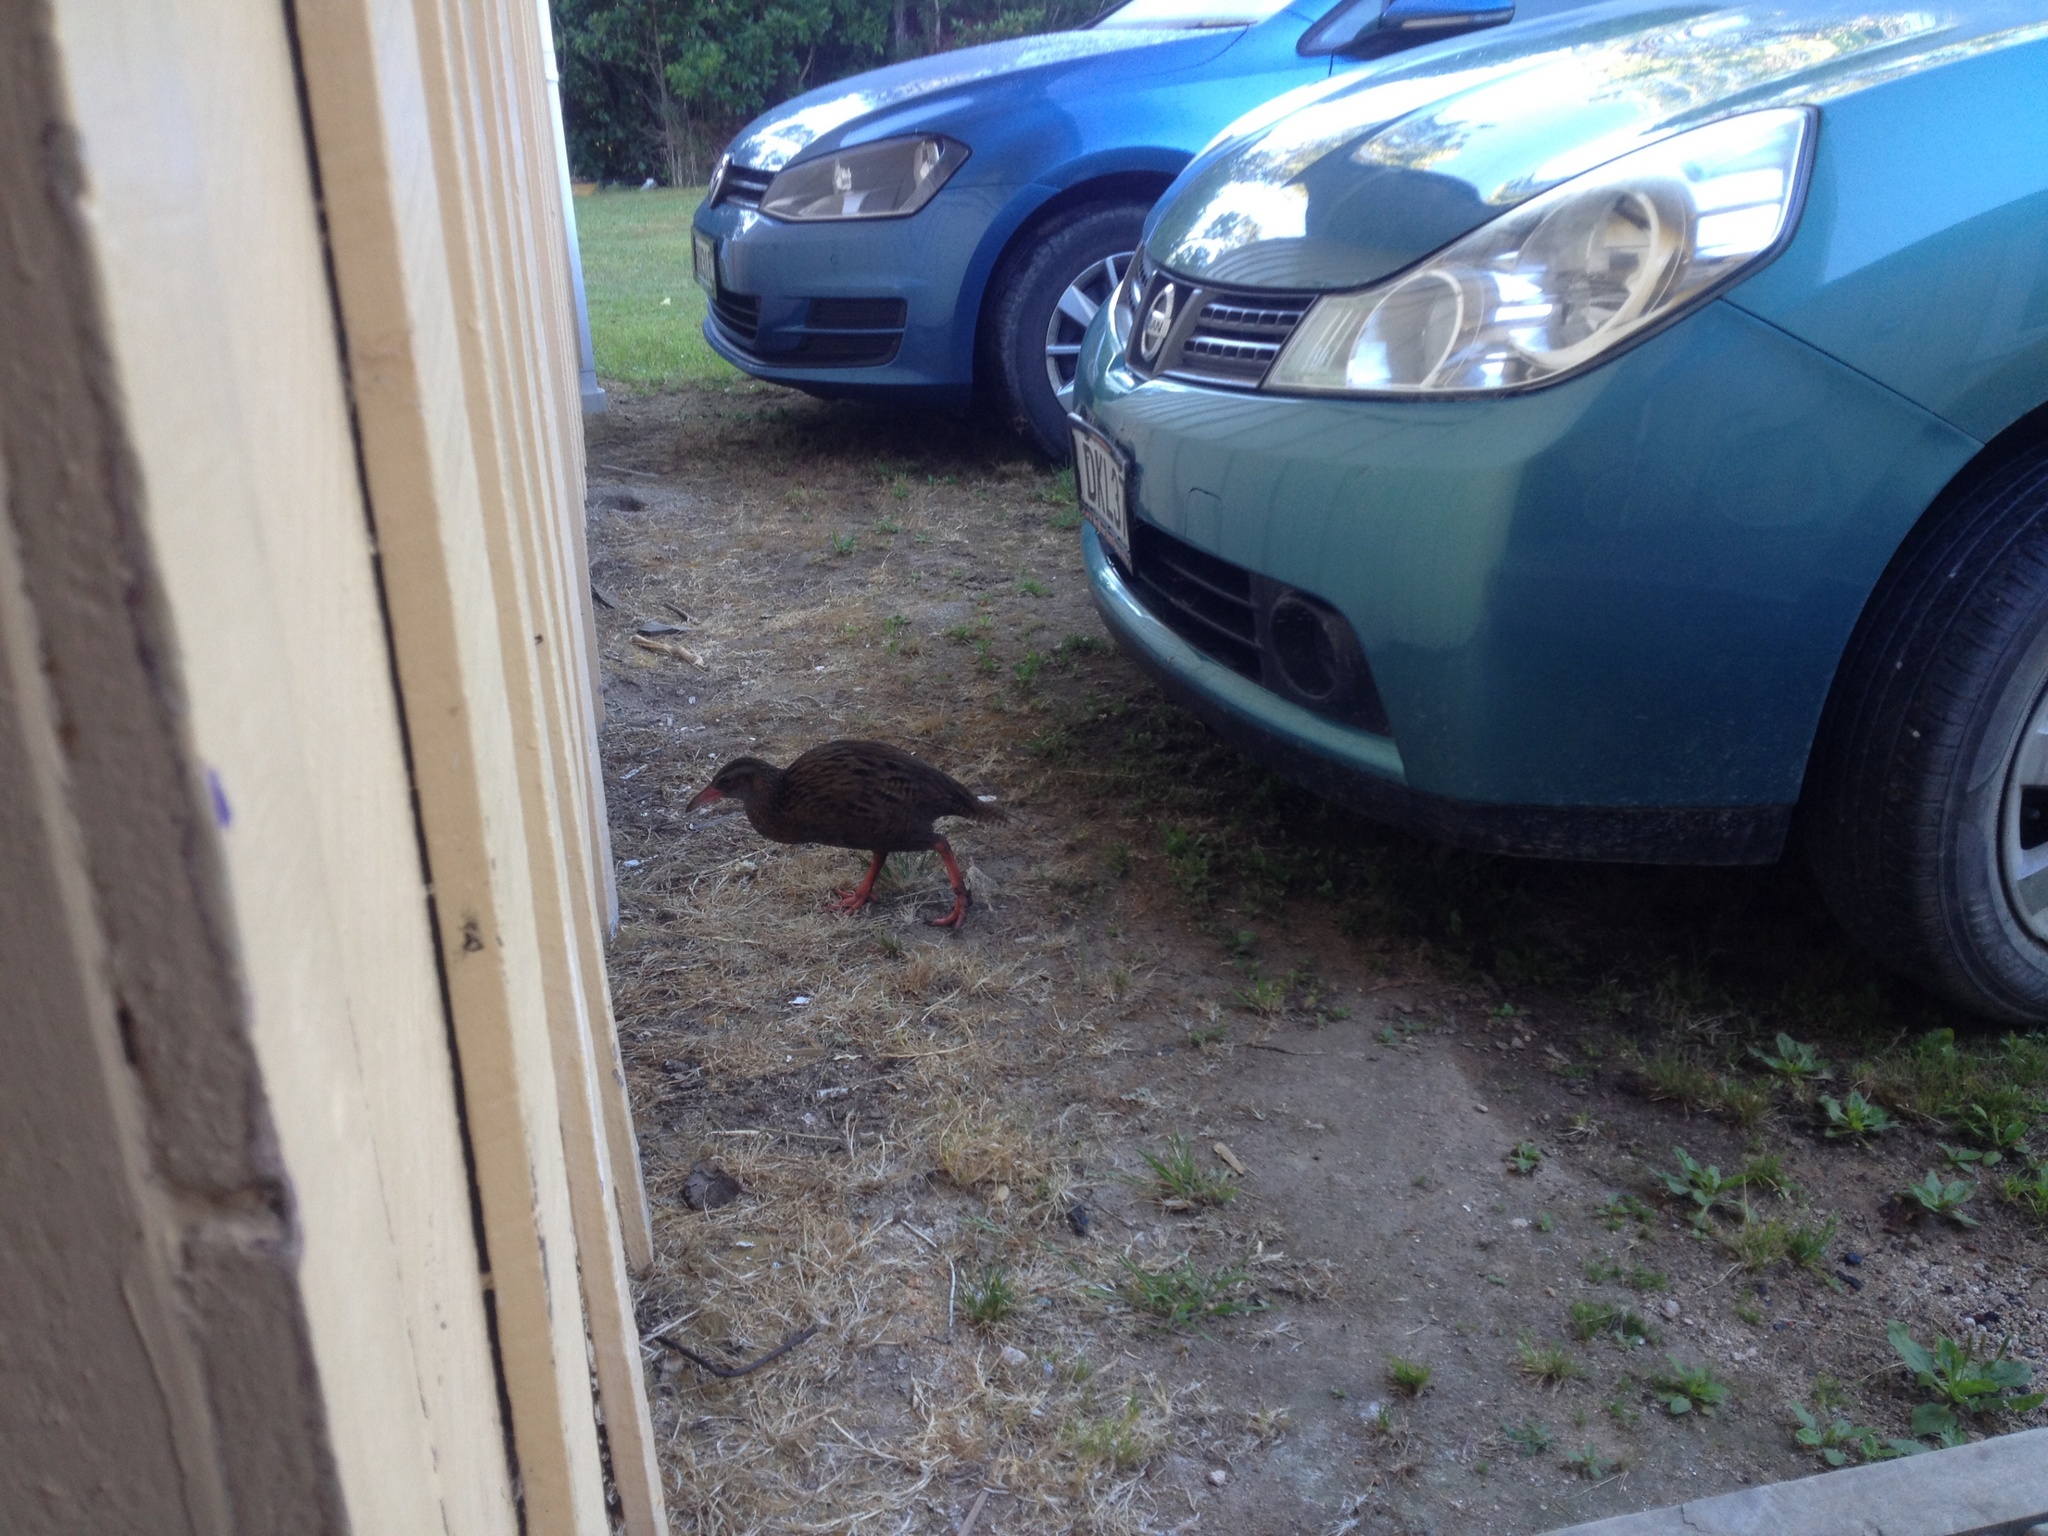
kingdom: Animalia
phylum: Chordata
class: Aves
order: Gruiformes
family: Rallidae
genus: Gallirallus
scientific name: Gallirallus australis
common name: Weka
